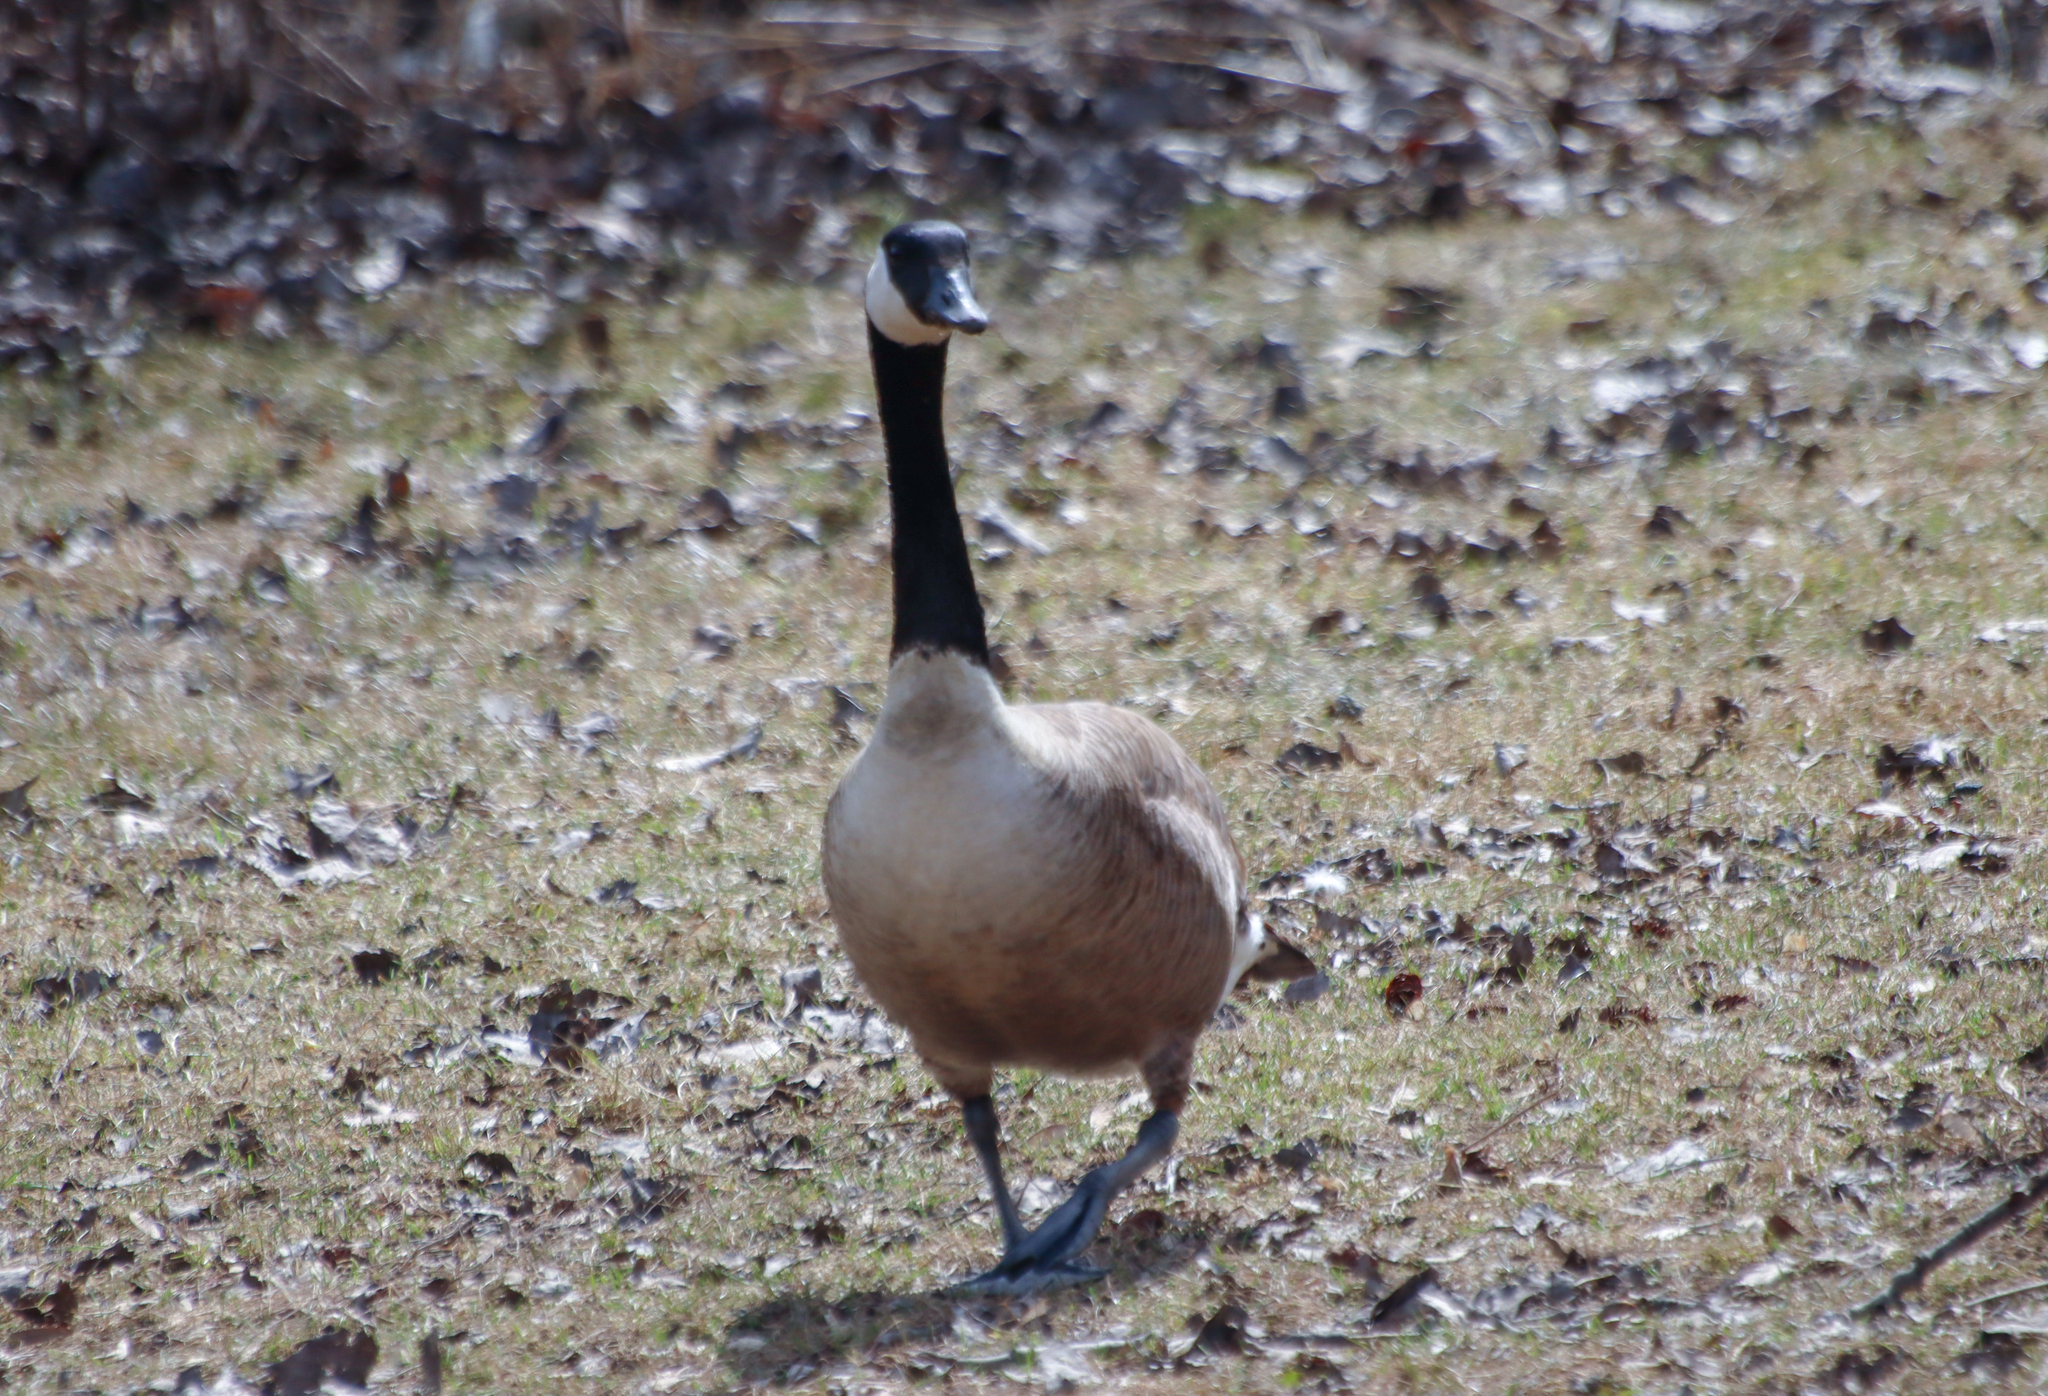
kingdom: Animalia
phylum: Chordata
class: Aves
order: Anseriformes
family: Anatidae
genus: Branta
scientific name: Branta canadensis
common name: Canada goose
